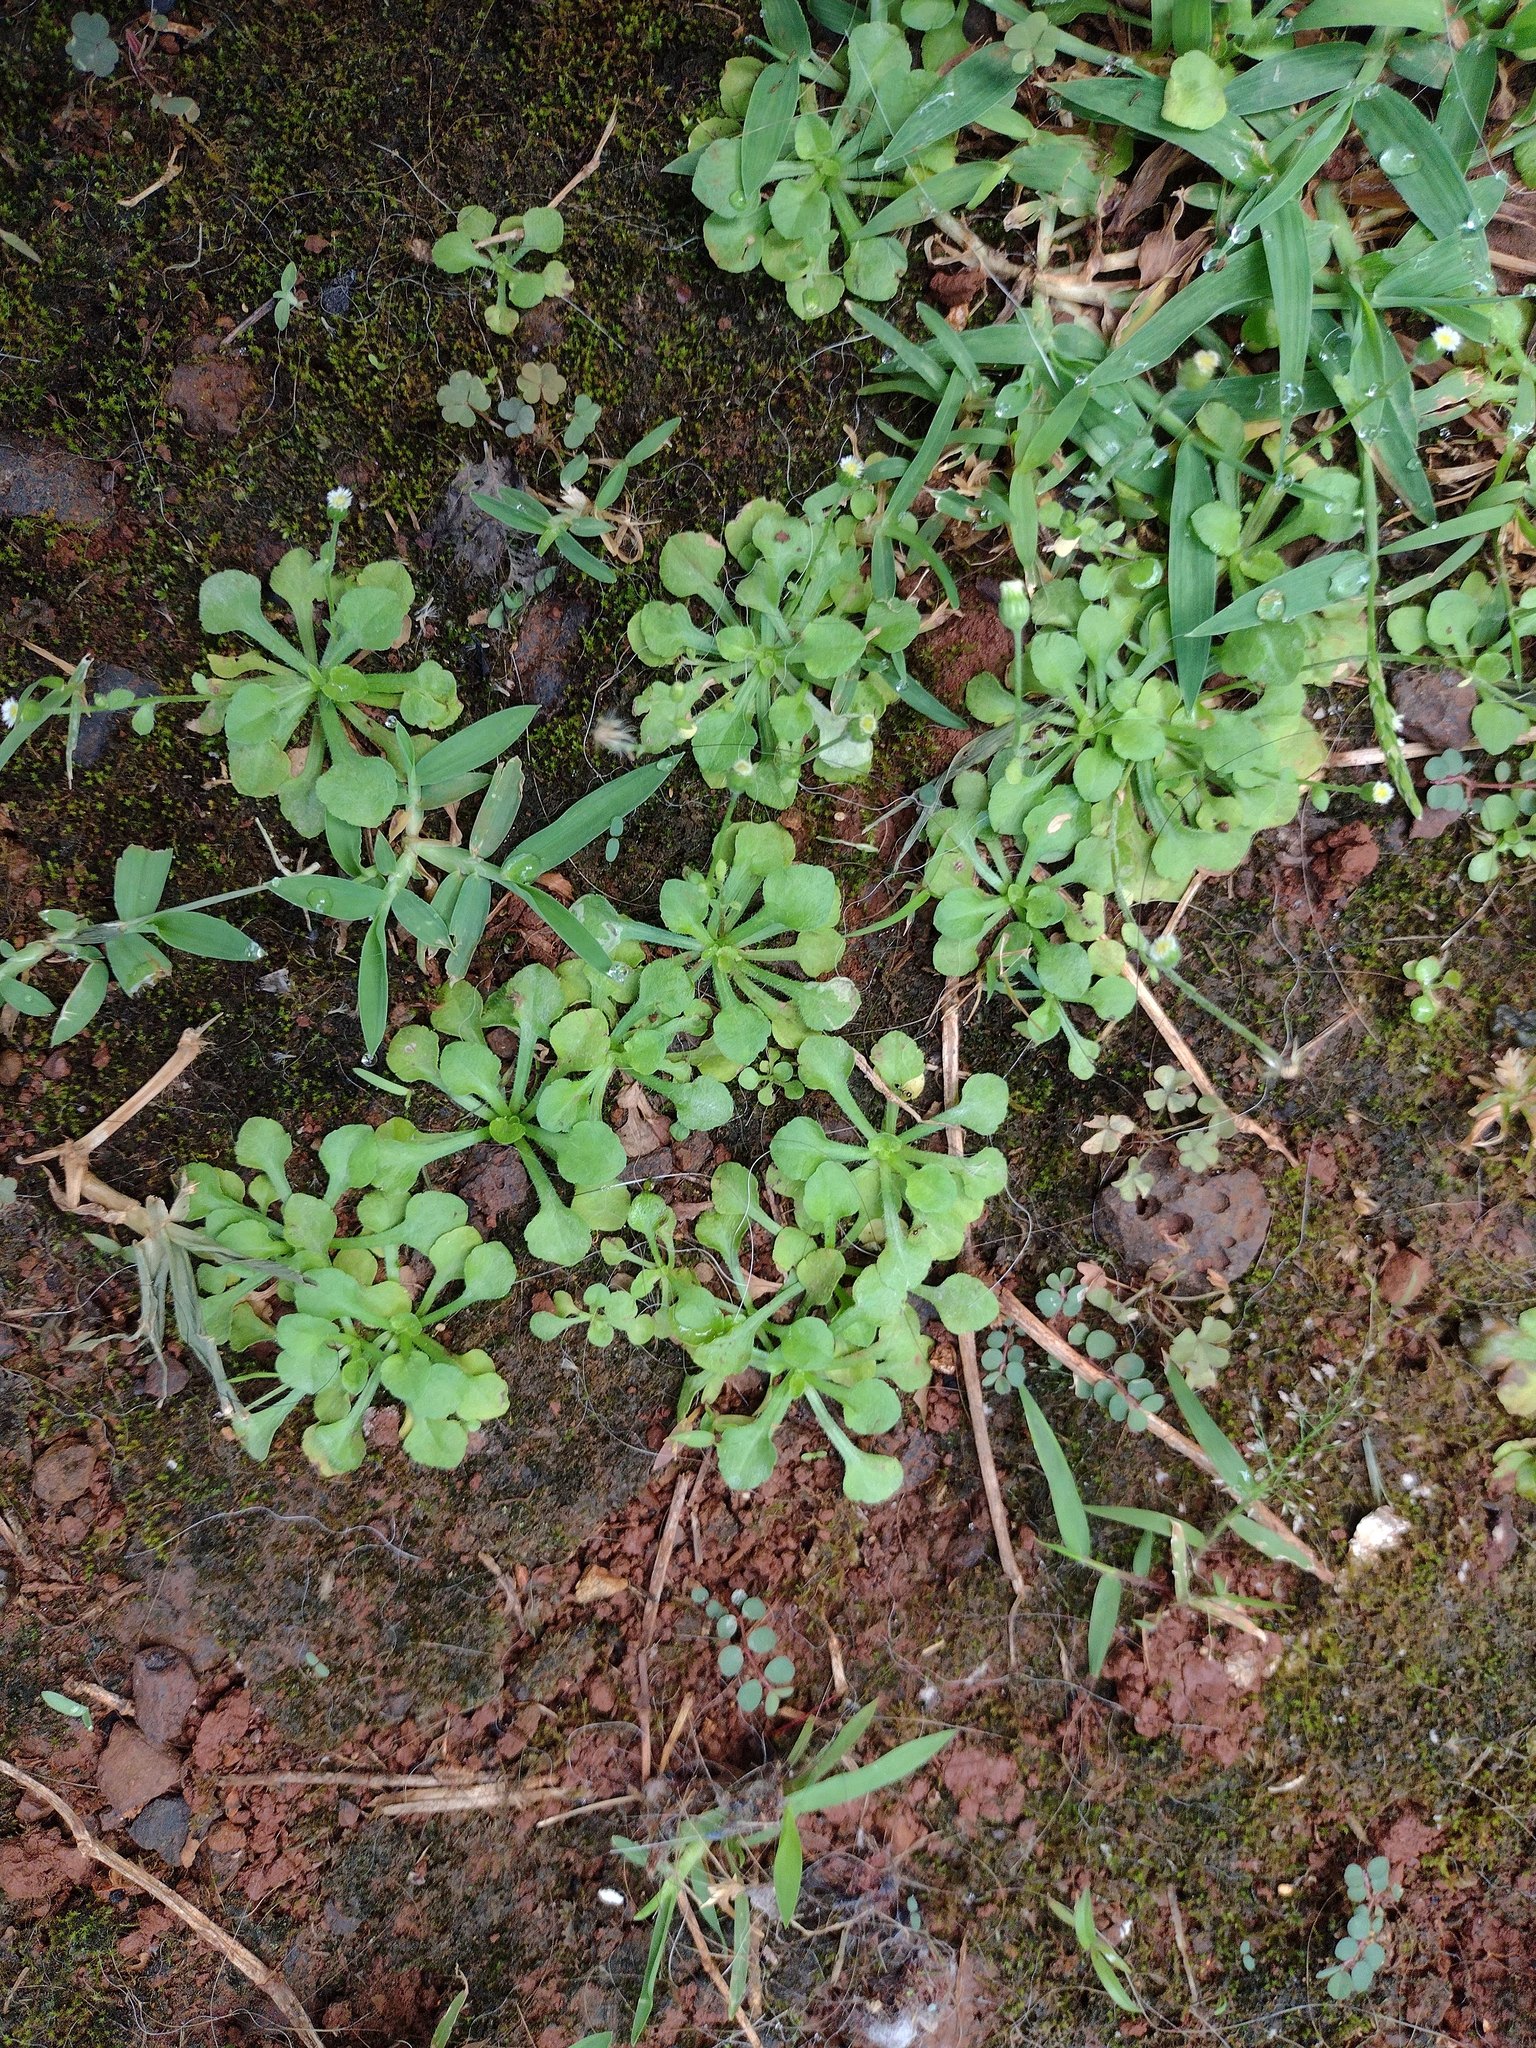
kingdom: Plantae
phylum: Tracheophyta
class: Magnoliopsida
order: Asterales
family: Asteraceae
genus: Erigeron
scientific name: Erigeron bellioides
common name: Bellorita
